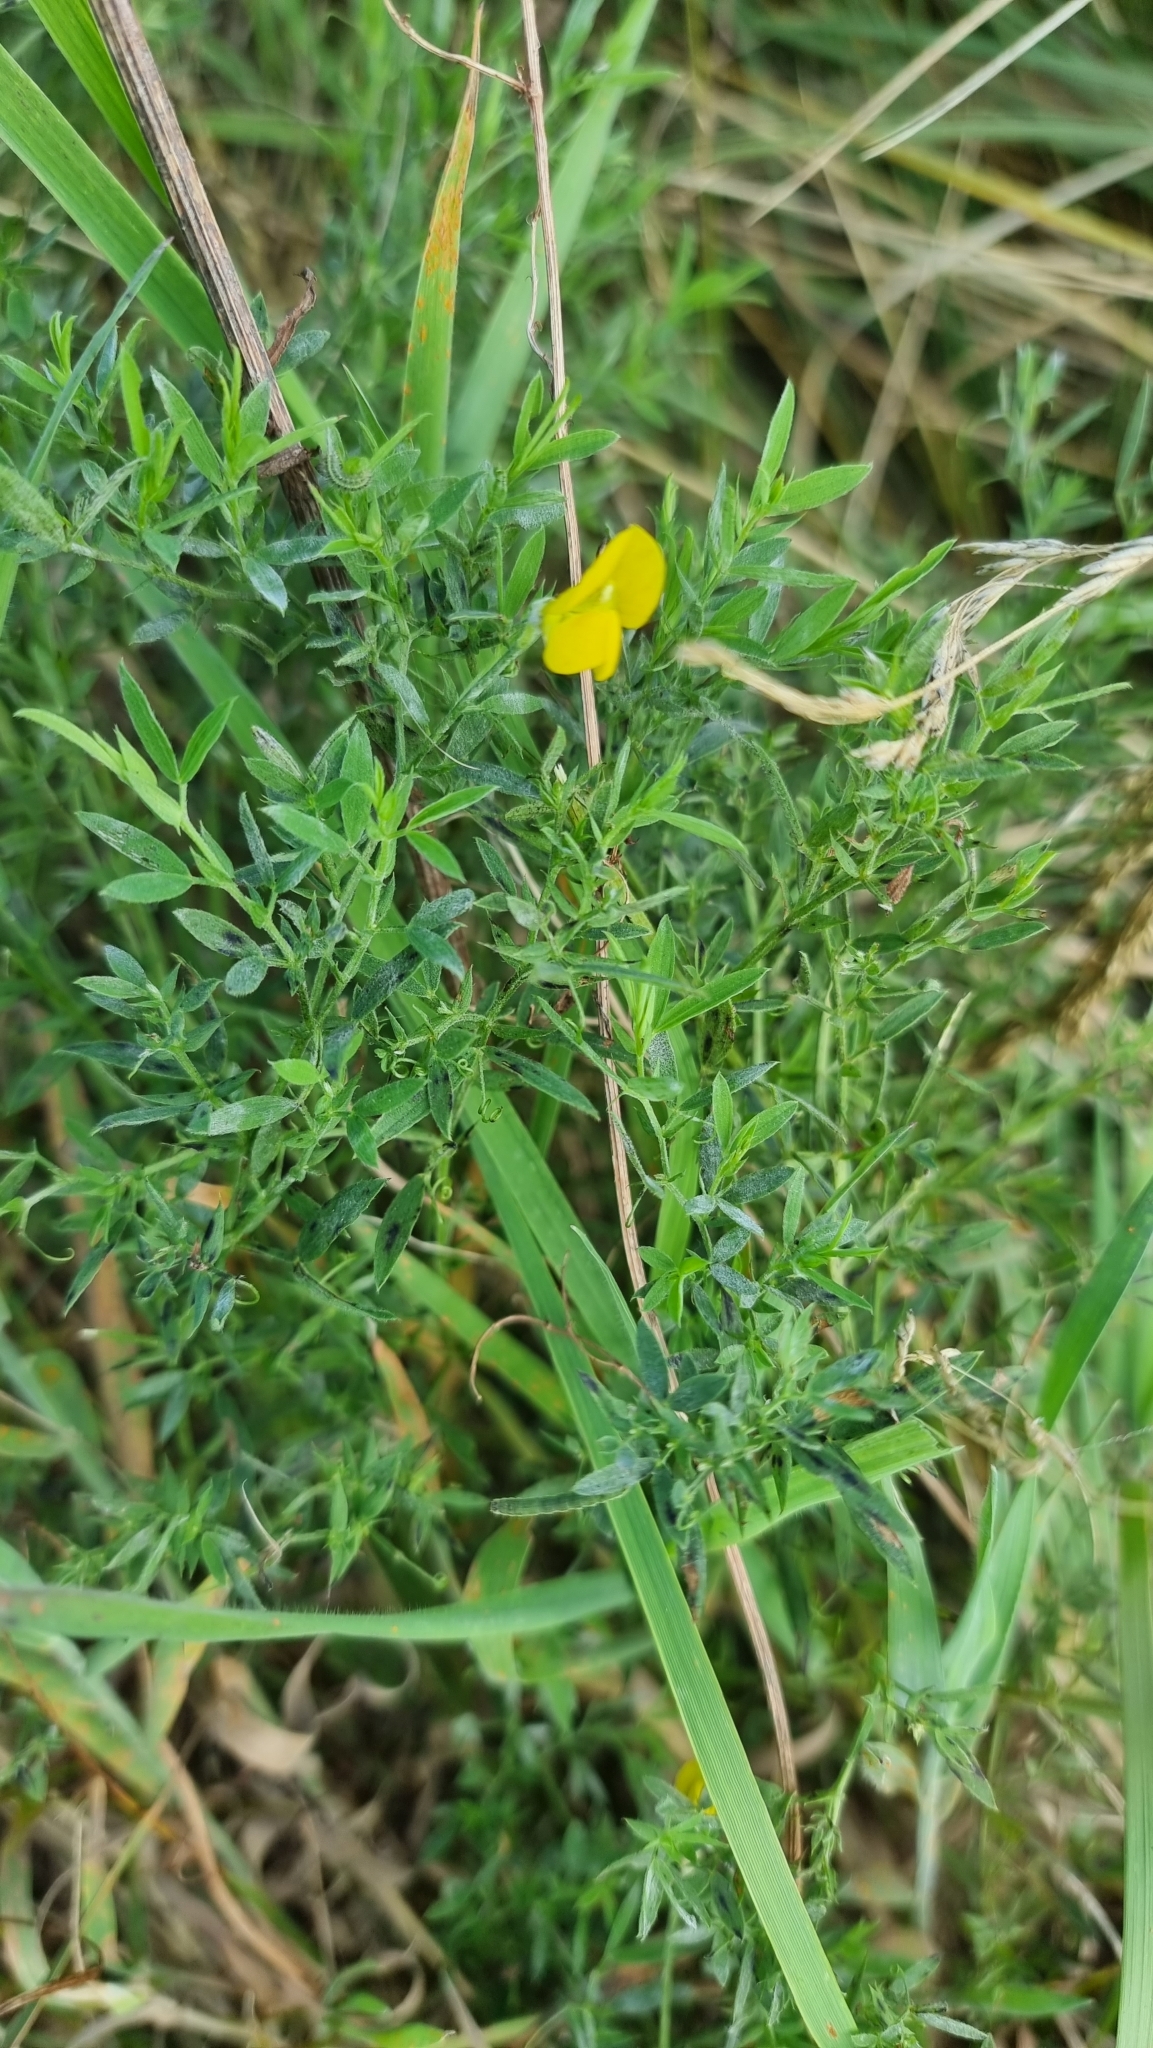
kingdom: Plantae
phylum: Tracheophyta
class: Magnoliopsida
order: Fabales
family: Fabaceae
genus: Lathyrus
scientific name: Lathyrus pratensis
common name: Meadow vetchling
